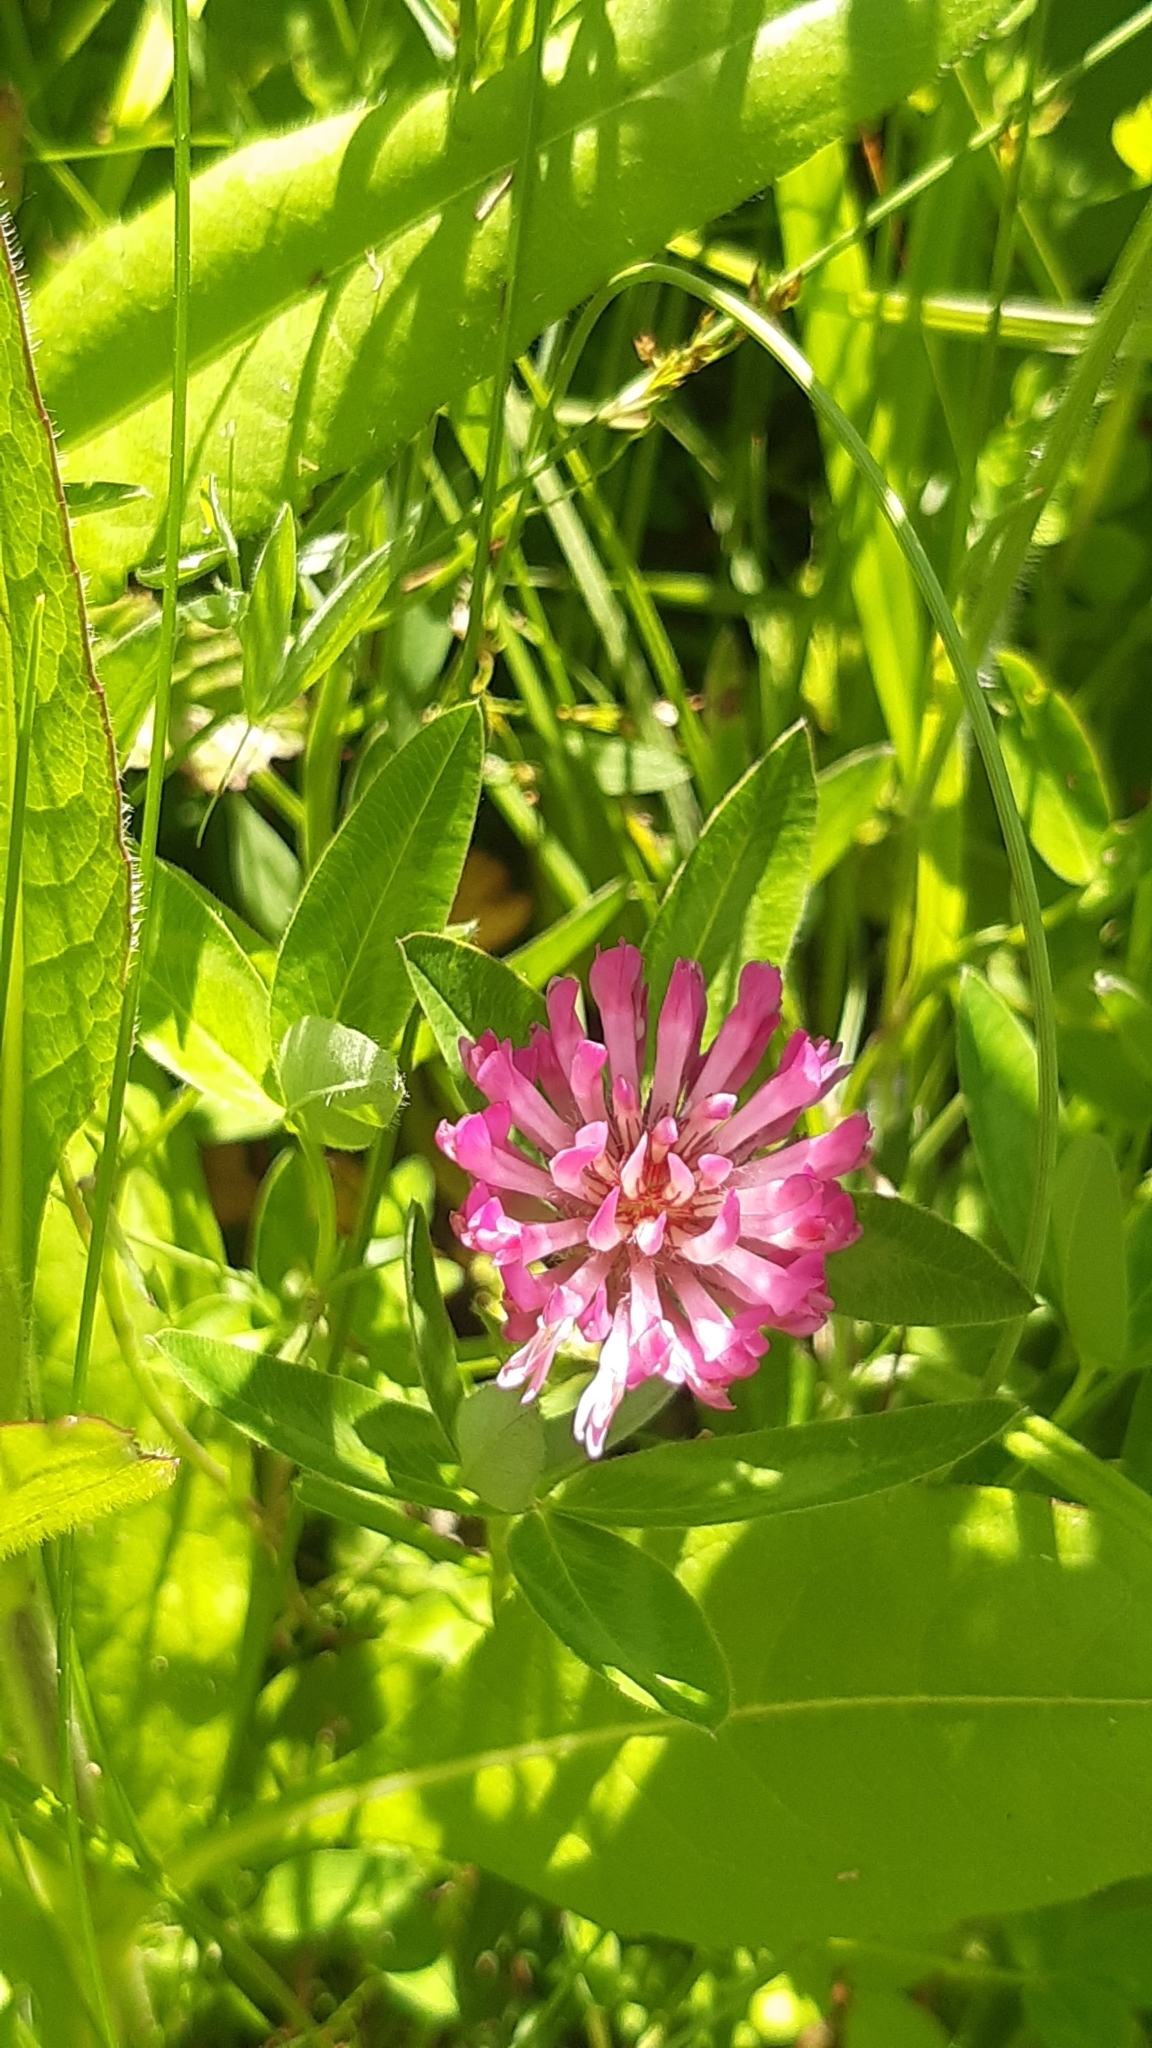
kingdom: Plantae
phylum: Tracheophyta
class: Magnoliopsida
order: Fabales
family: Fabaceae
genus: Trifolium
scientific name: Trifolium medium
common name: Zigzag clover
